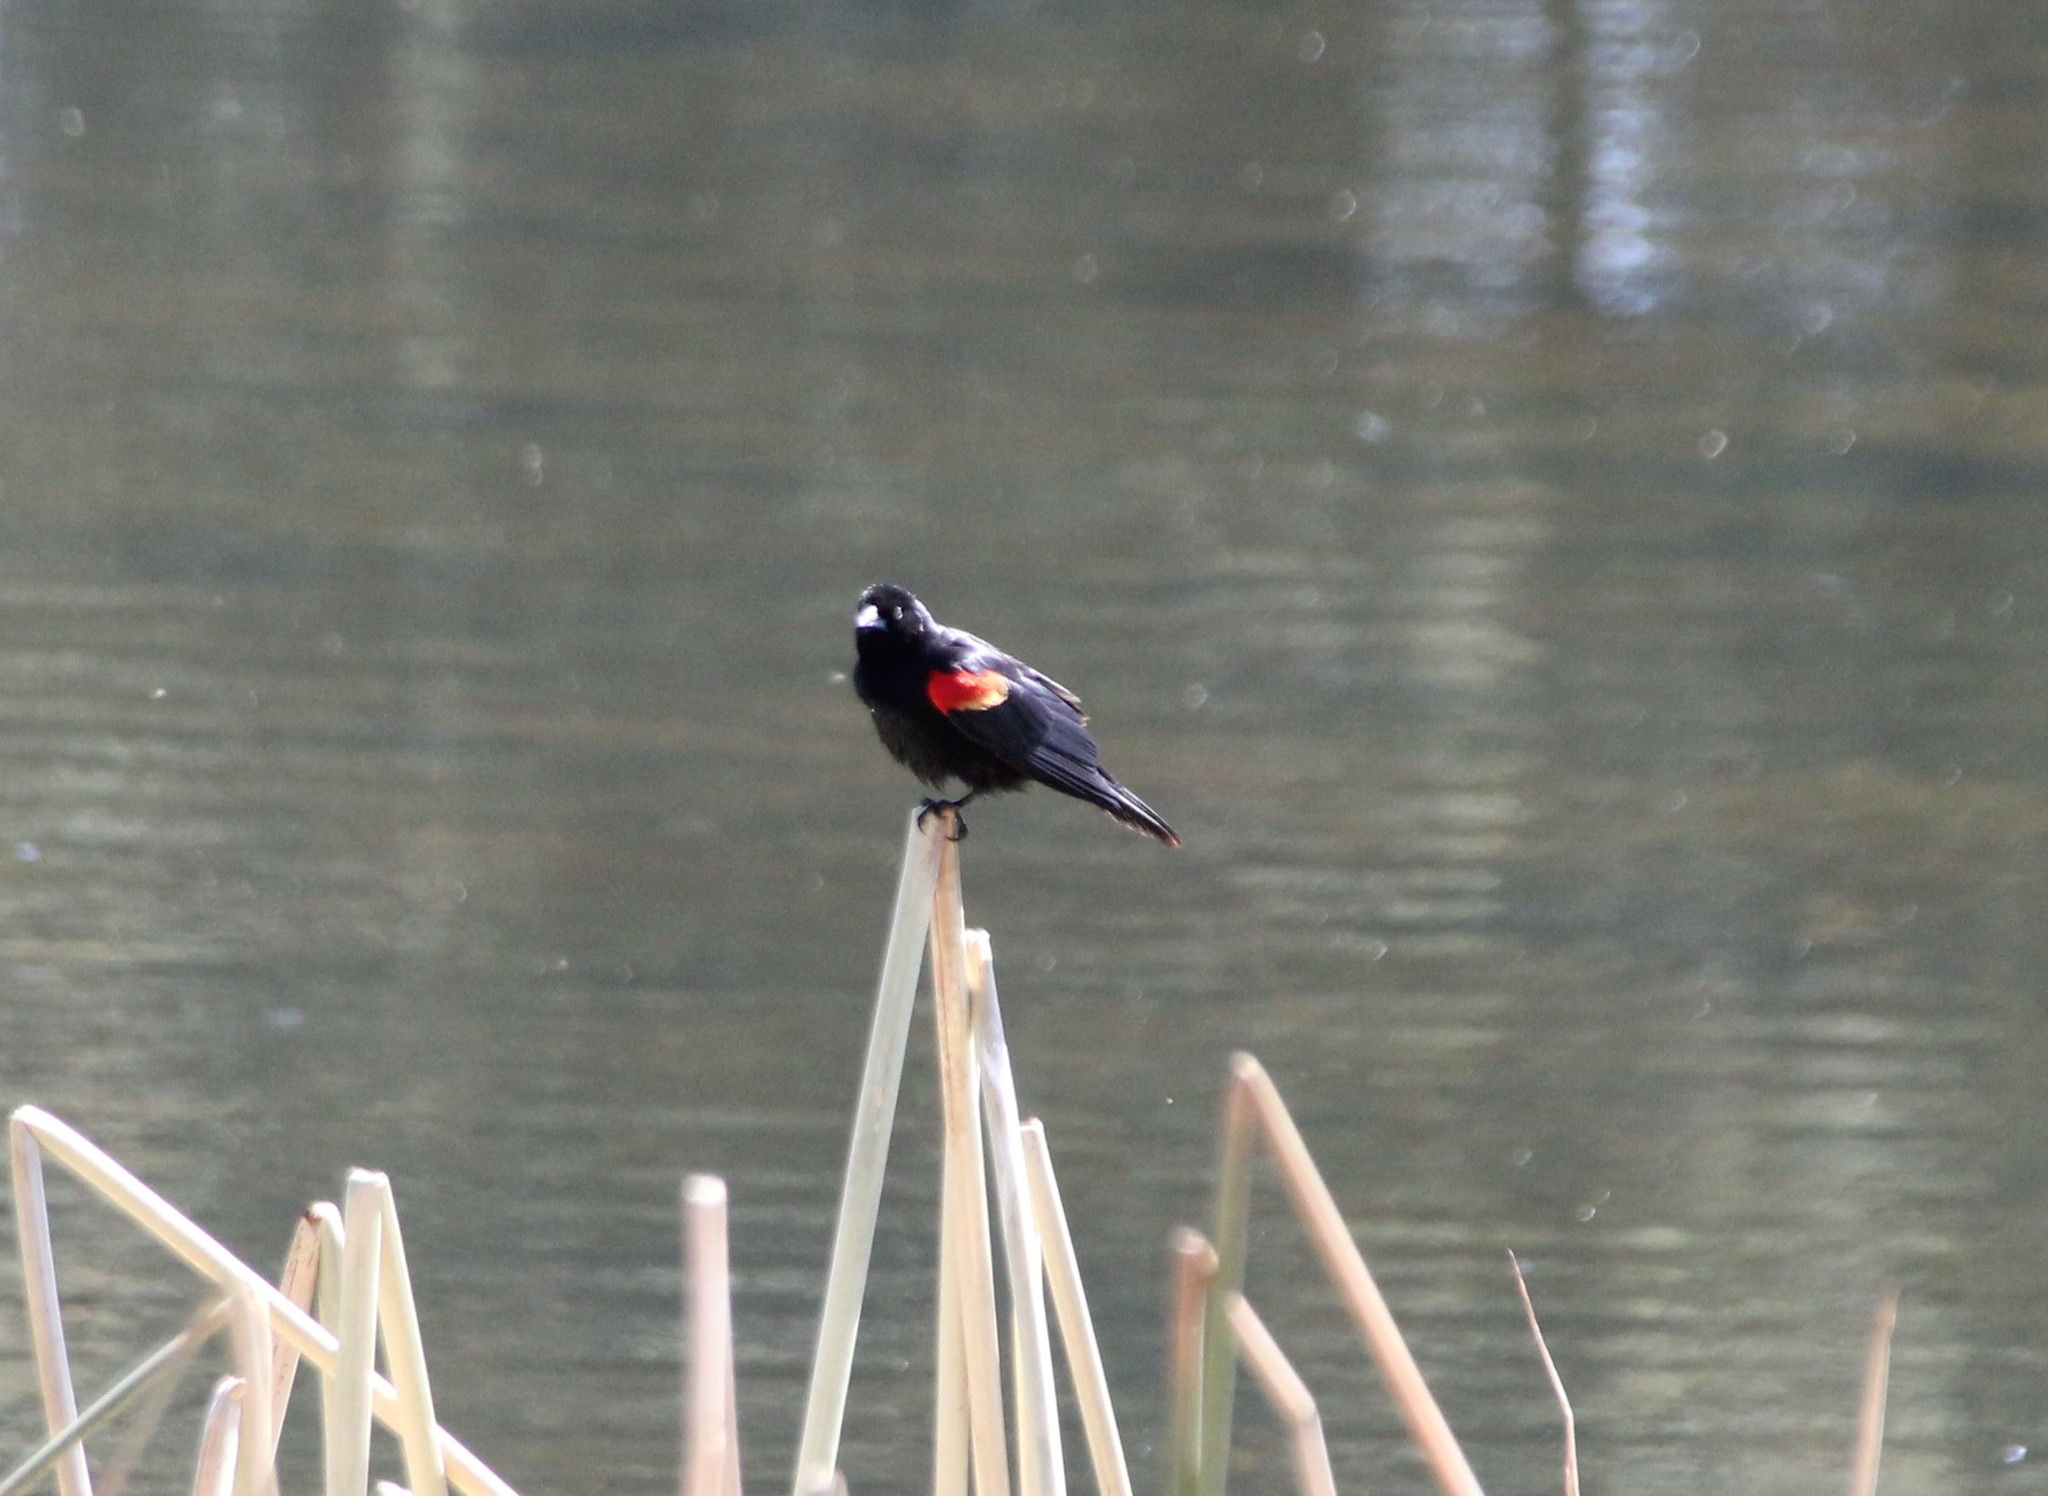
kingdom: Animalia
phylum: Chordata
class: Aves
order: Passeriformes
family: Icteridae
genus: Agelaius
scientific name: Agelaius phoeniceus
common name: Red-winged blackbird
